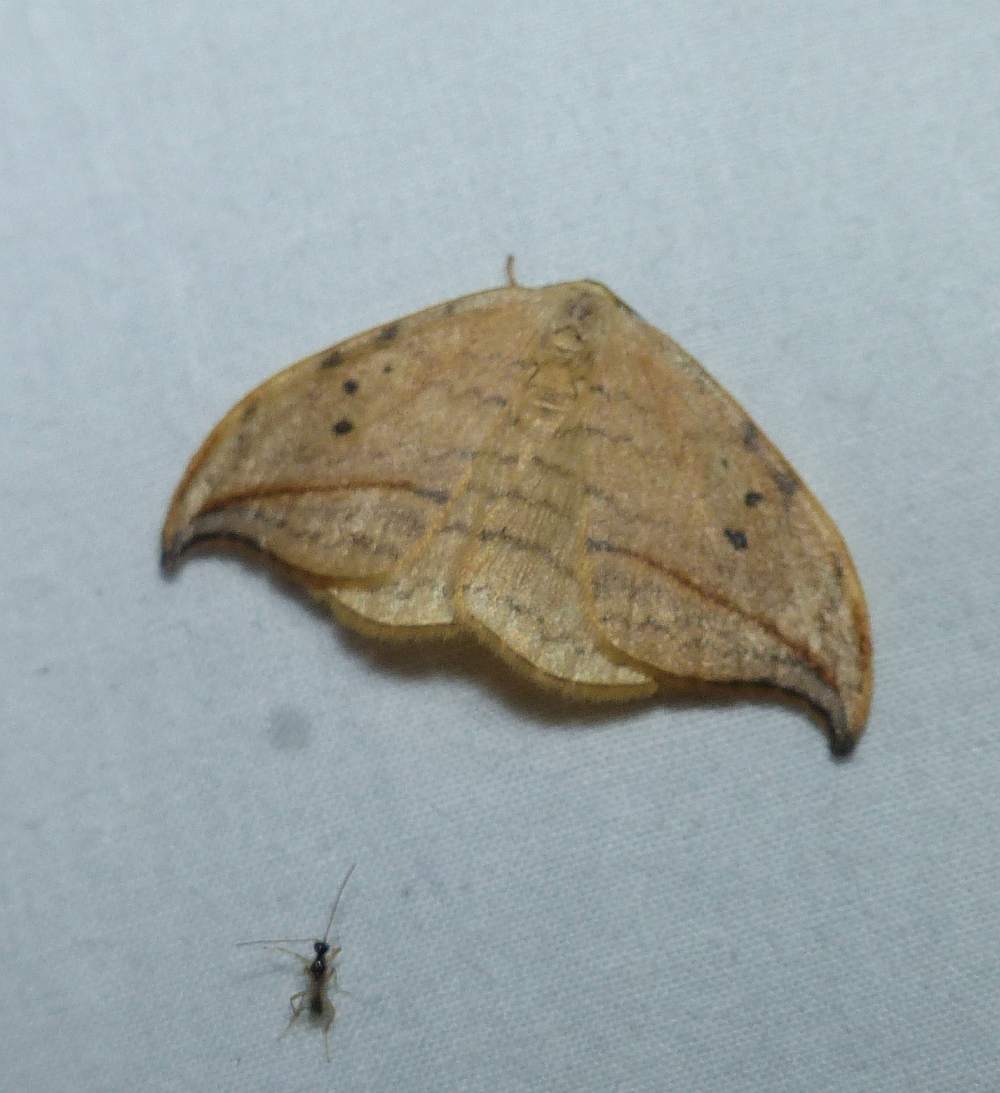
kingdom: Animalia
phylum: Arthropoda
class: Insecta
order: Lepidoptera
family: Drepanidae
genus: Drepana
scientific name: Drepana arcuata
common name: Arched hooktip moth
